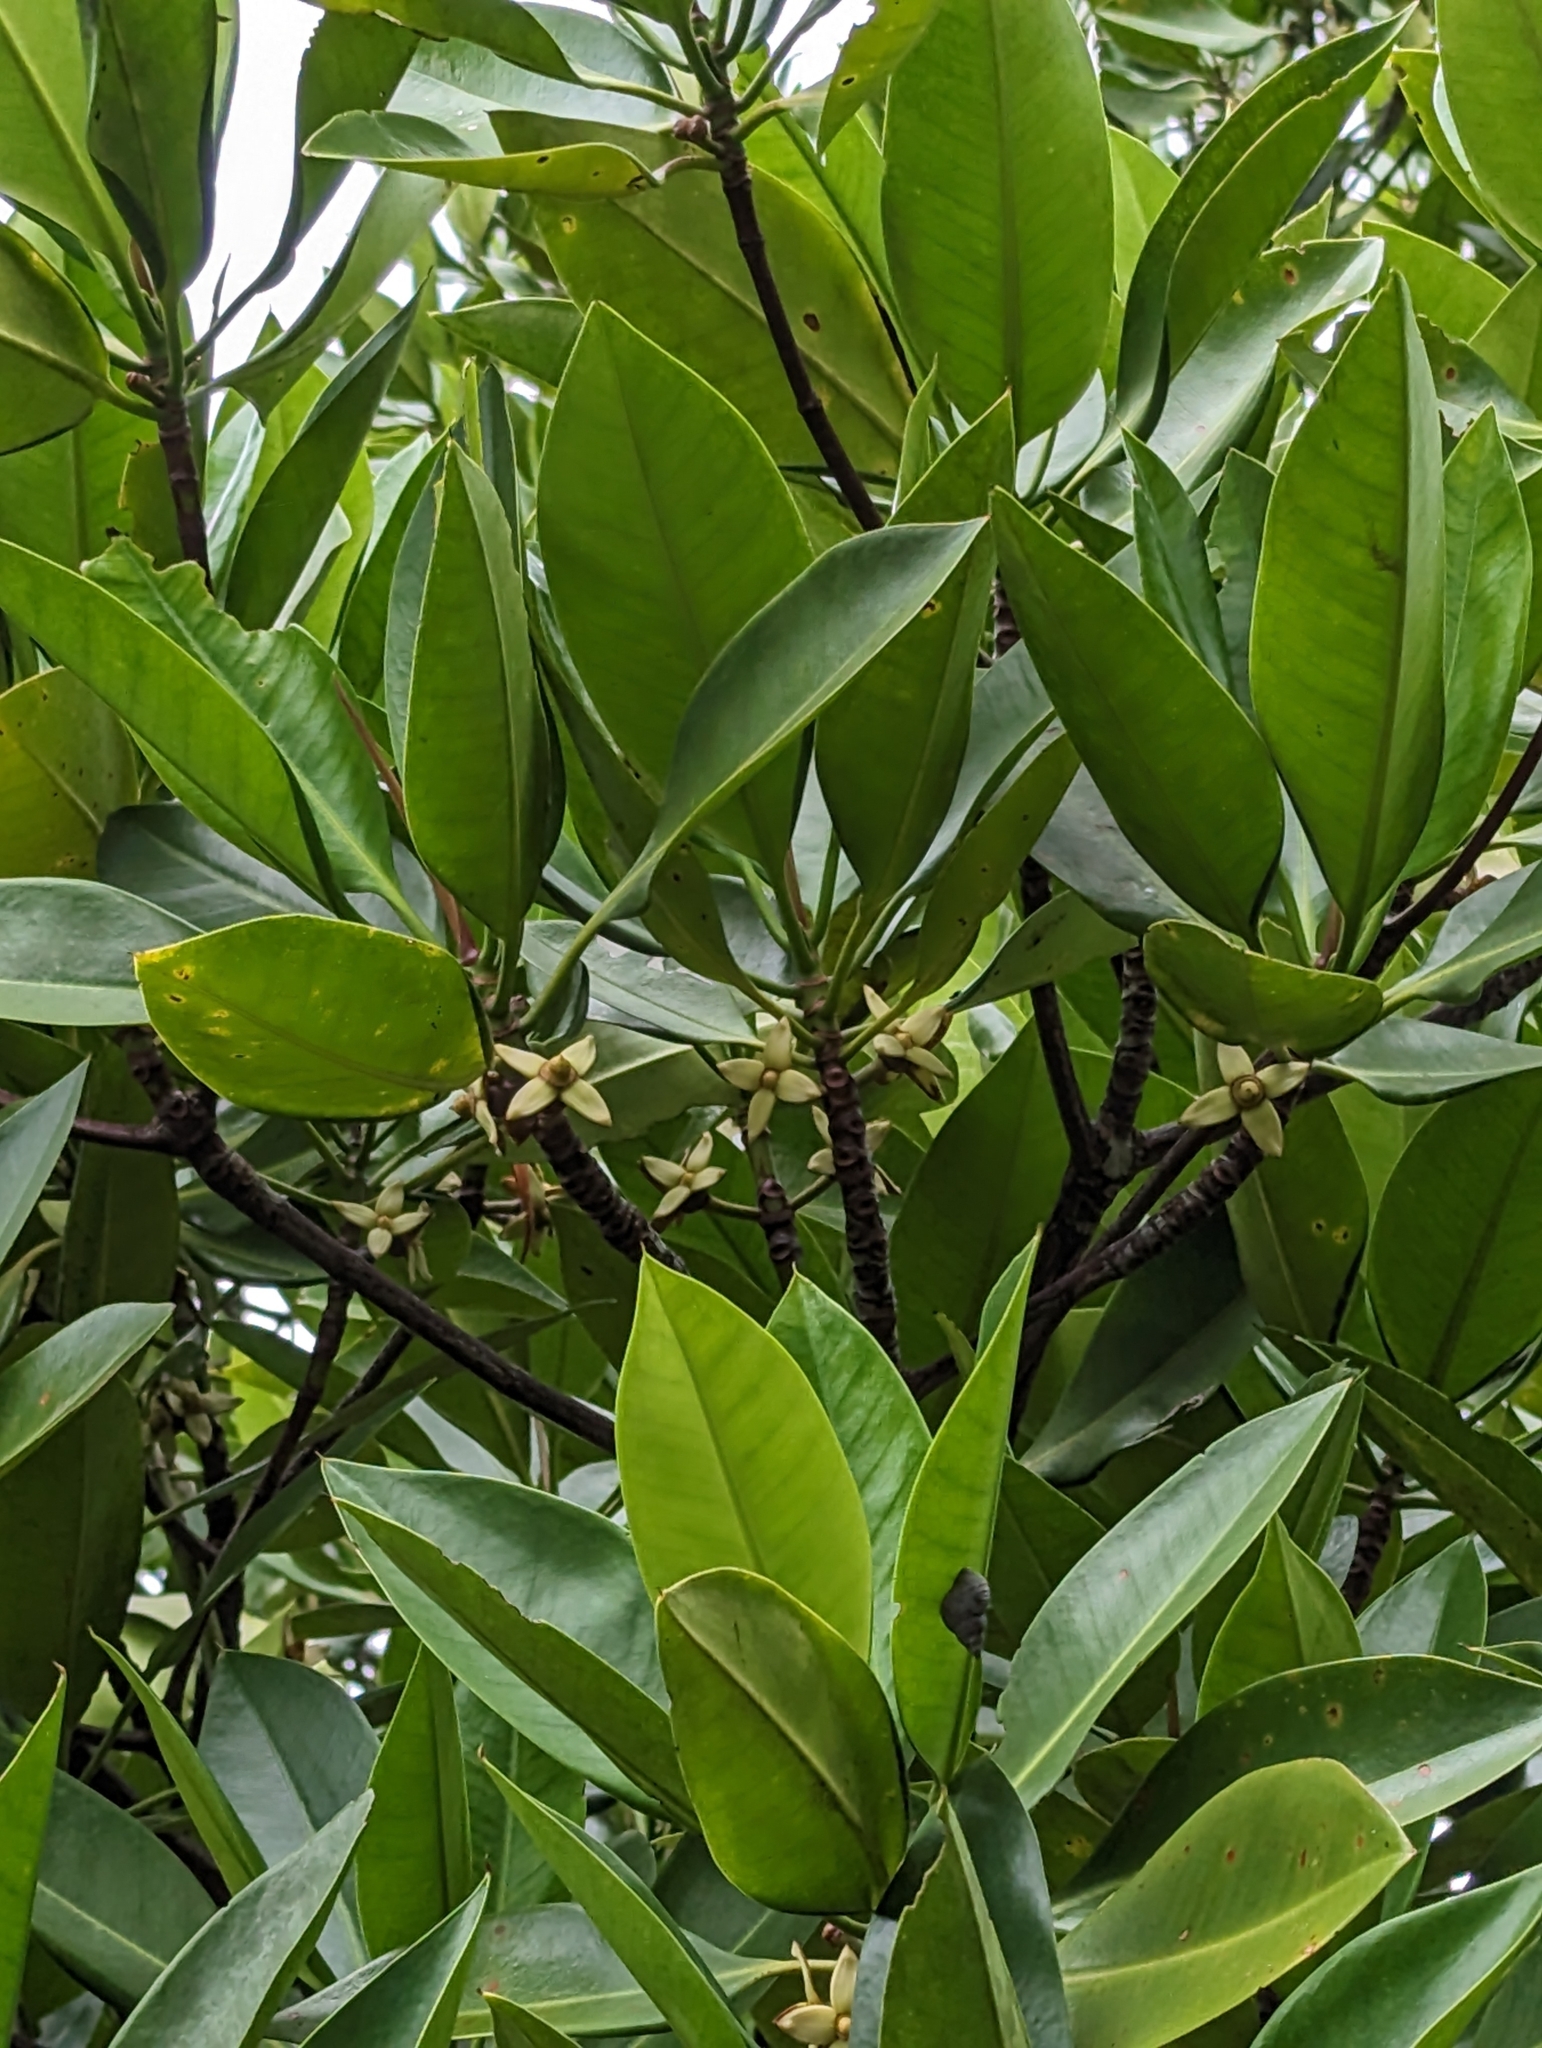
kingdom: Plantae
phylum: Tracheophyta
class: Magnoliopsida
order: Malpighiales
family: Rhizophoraceae
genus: Rhizophora
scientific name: Rhizophora apiculata
